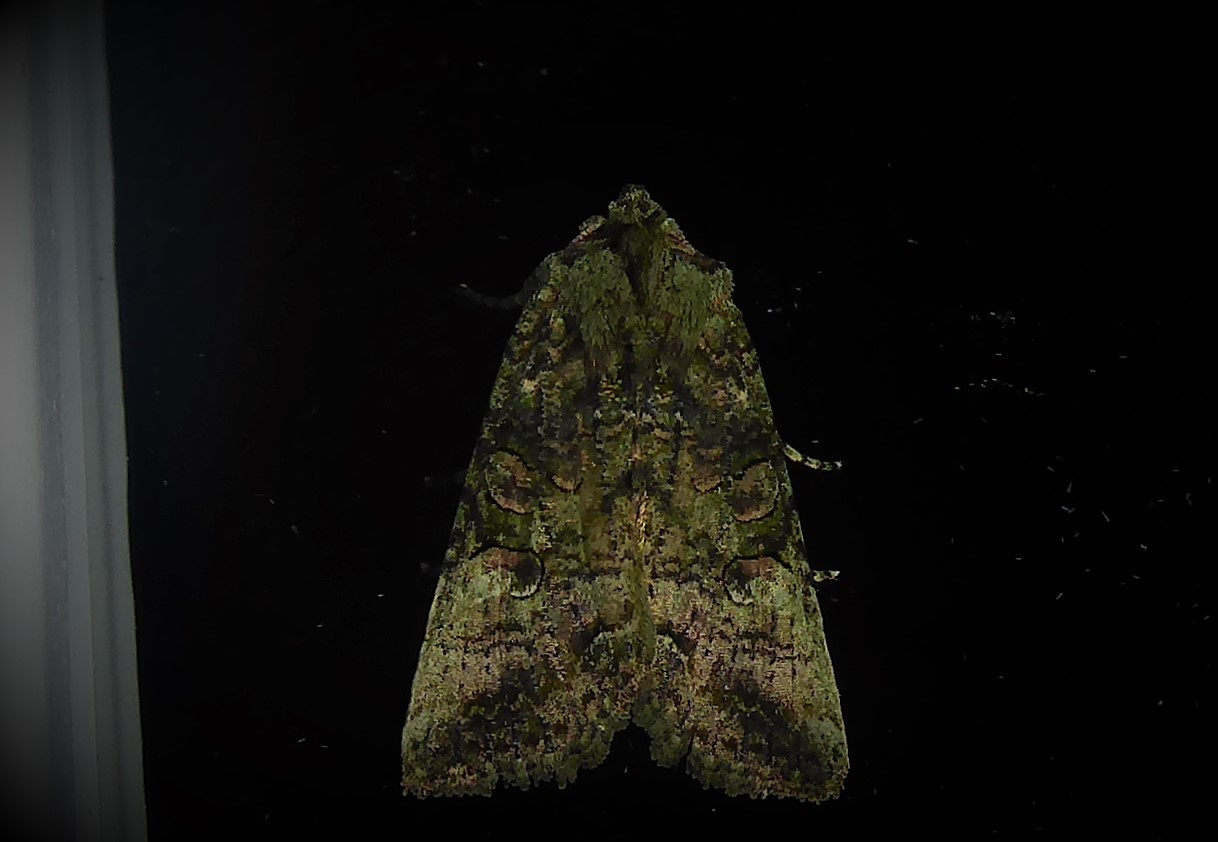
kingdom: Animalia
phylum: Arthropoda
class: Insecta
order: Lepidoptera
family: Noctuidae
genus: Meterana
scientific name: Meterana levis
